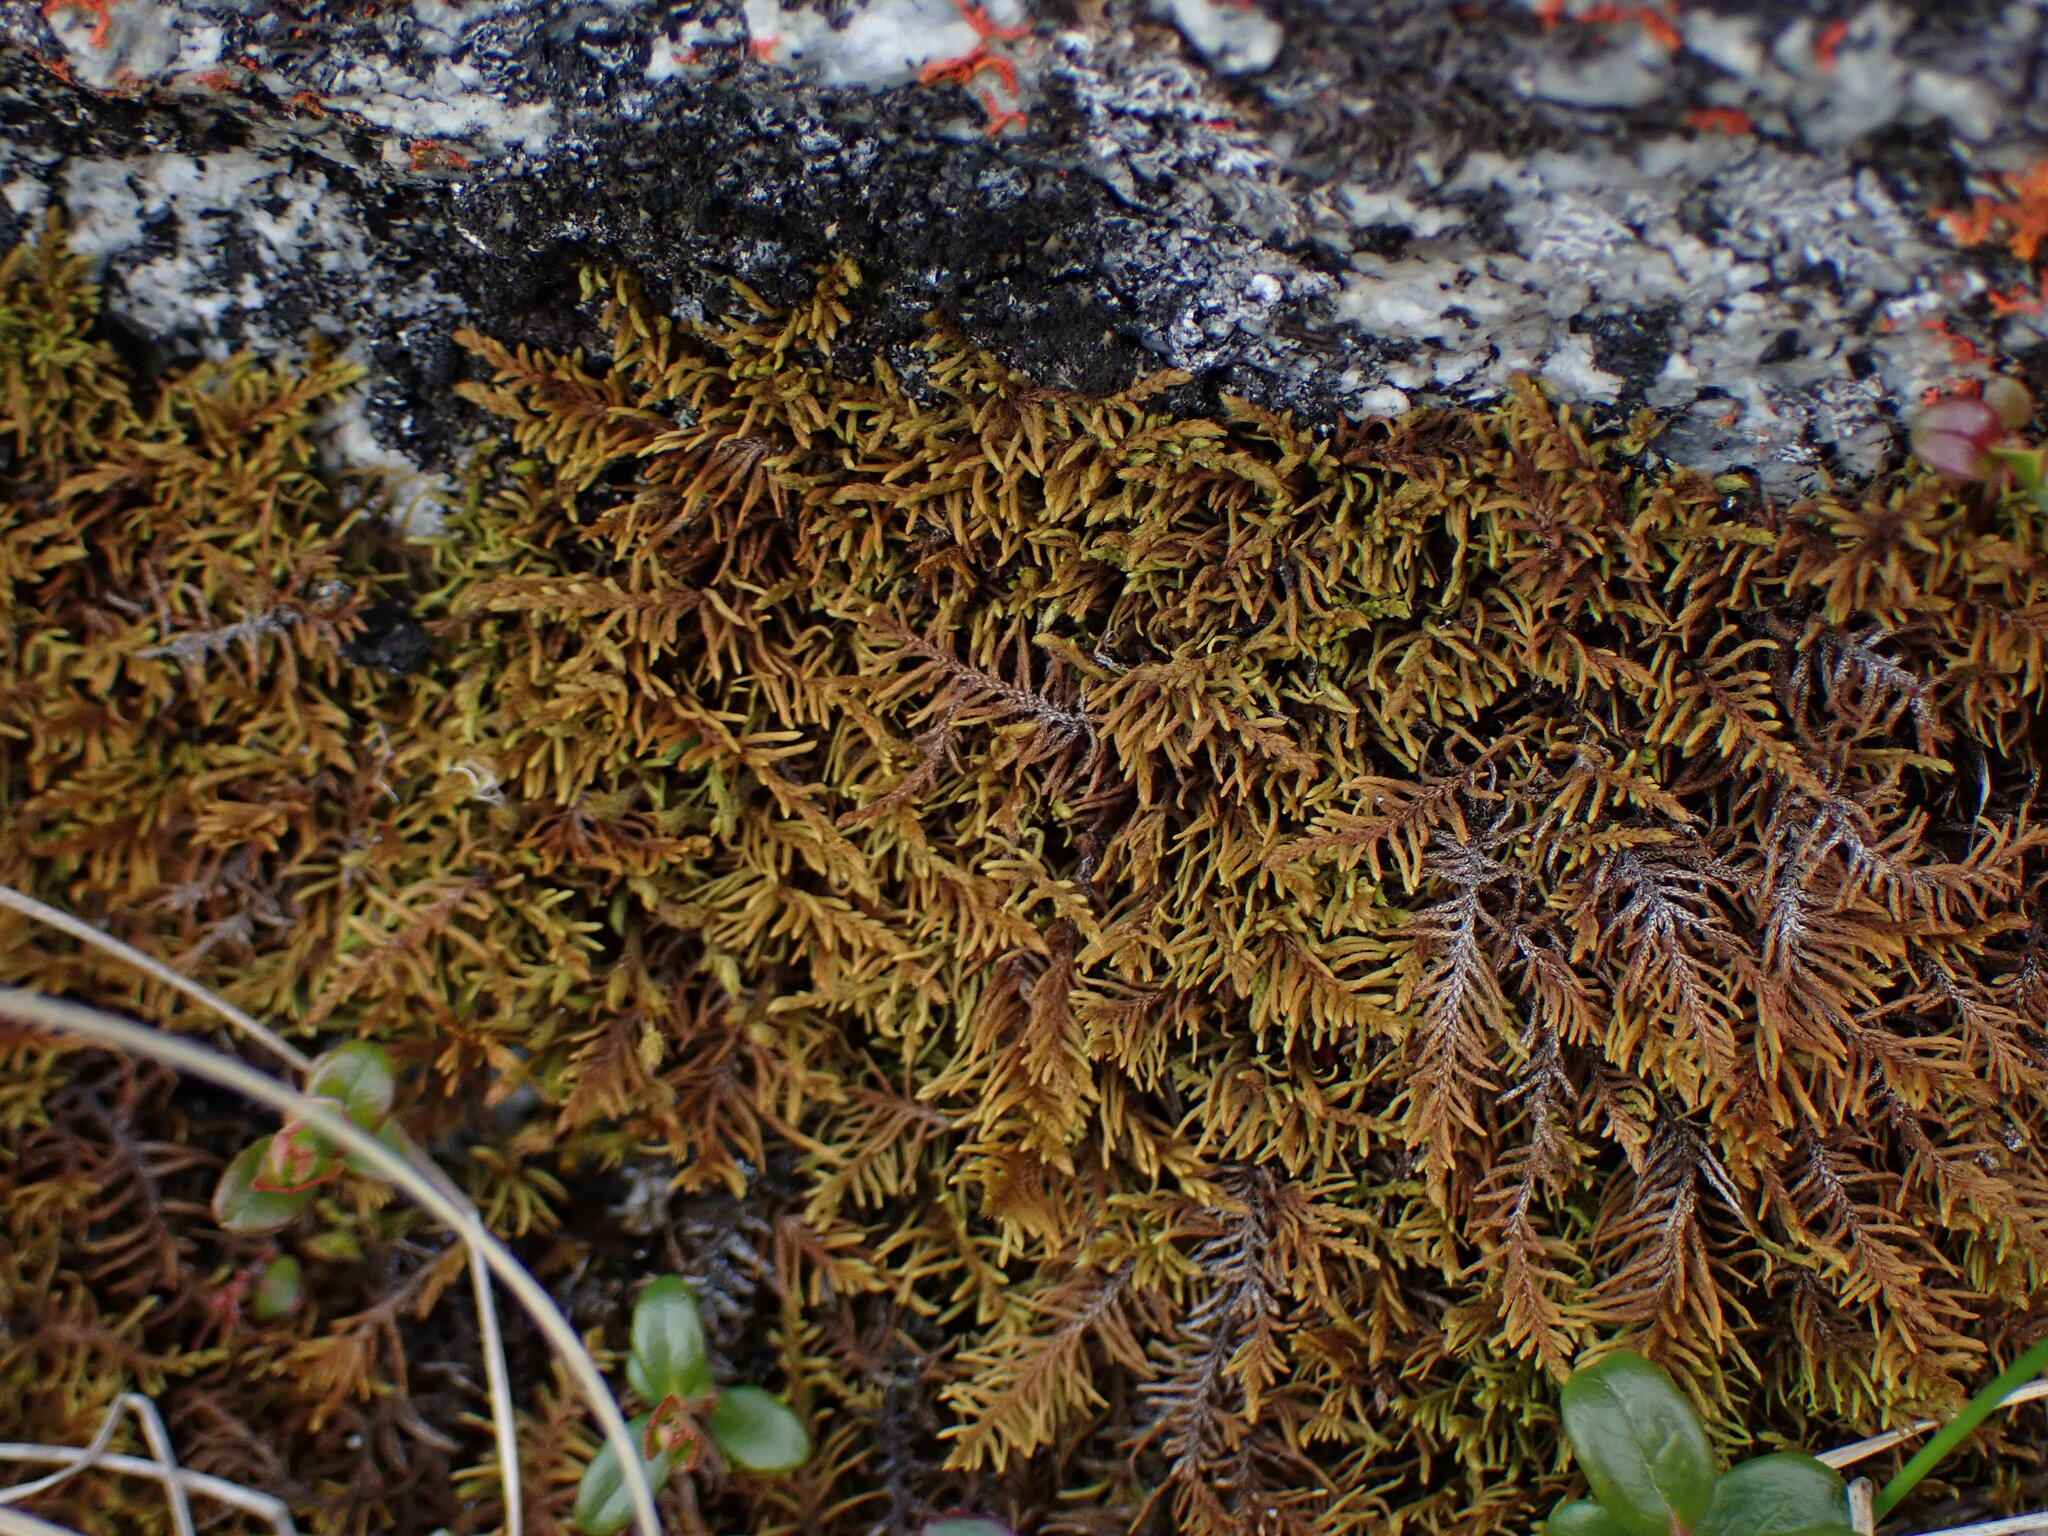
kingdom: Plantae
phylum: Bryophyta
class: Bryopsida
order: Hypnales
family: Thuidiaceae
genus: Abietinella
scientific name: Abietinella abietina
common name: Wiry fern moss
